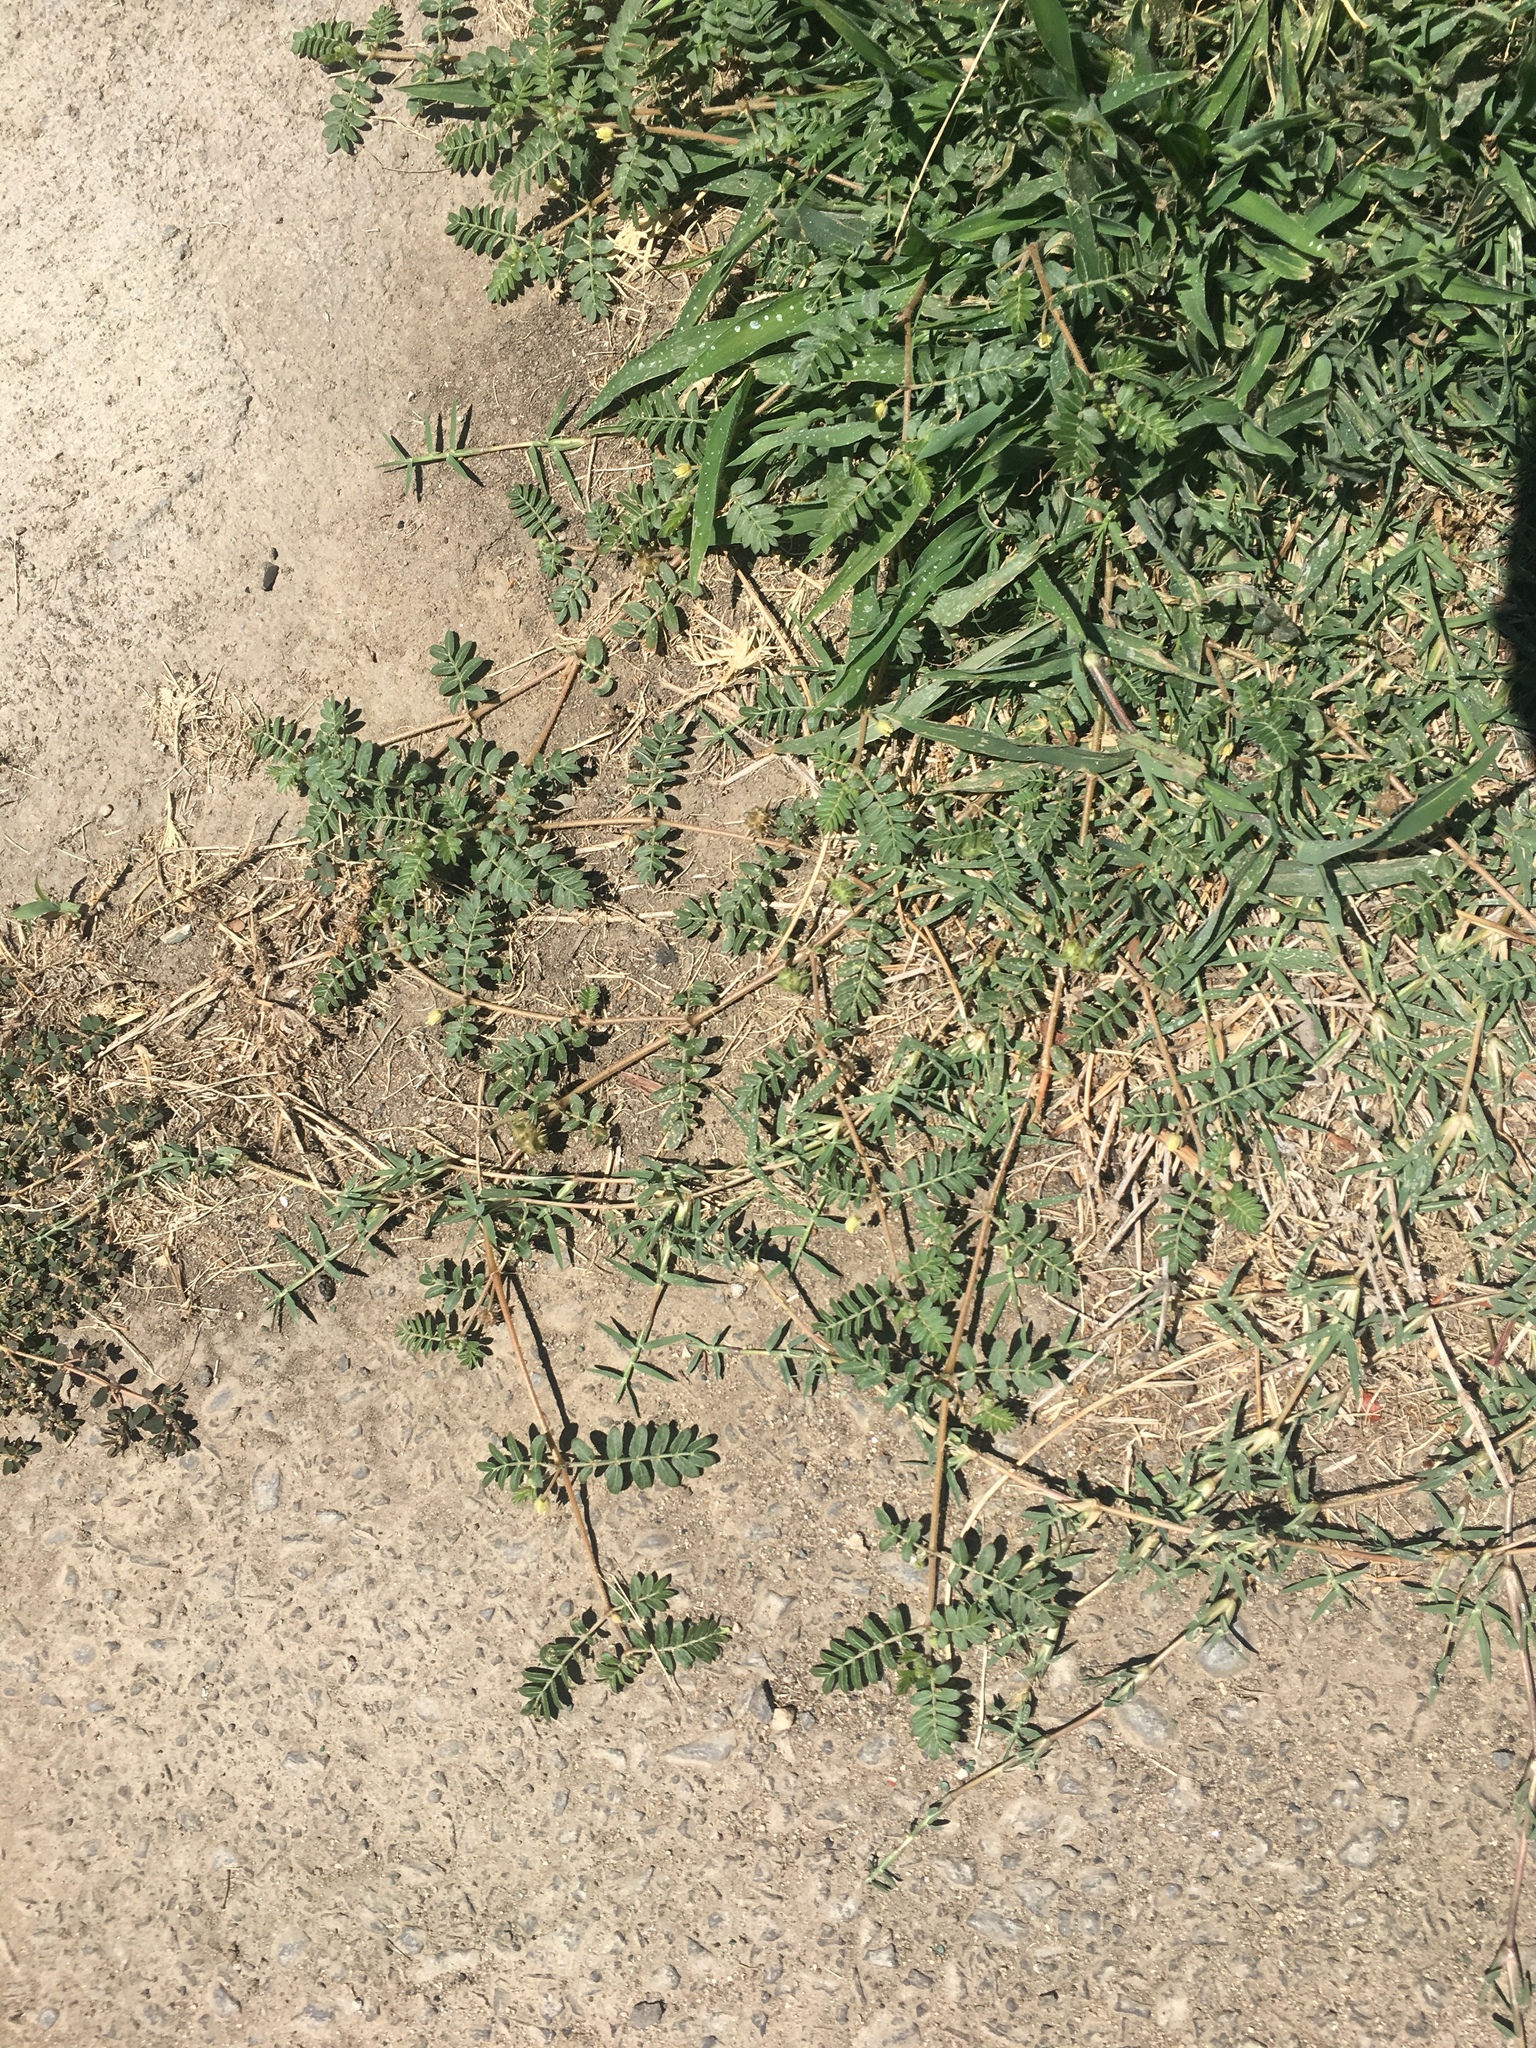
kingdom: Plantae
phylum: Tracheophyta
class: Magnoliopsida
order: Zygophyllales
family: Zygophyllaceae
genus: Tribulus
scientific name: Tribulus terrestris
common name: Puncturevine
